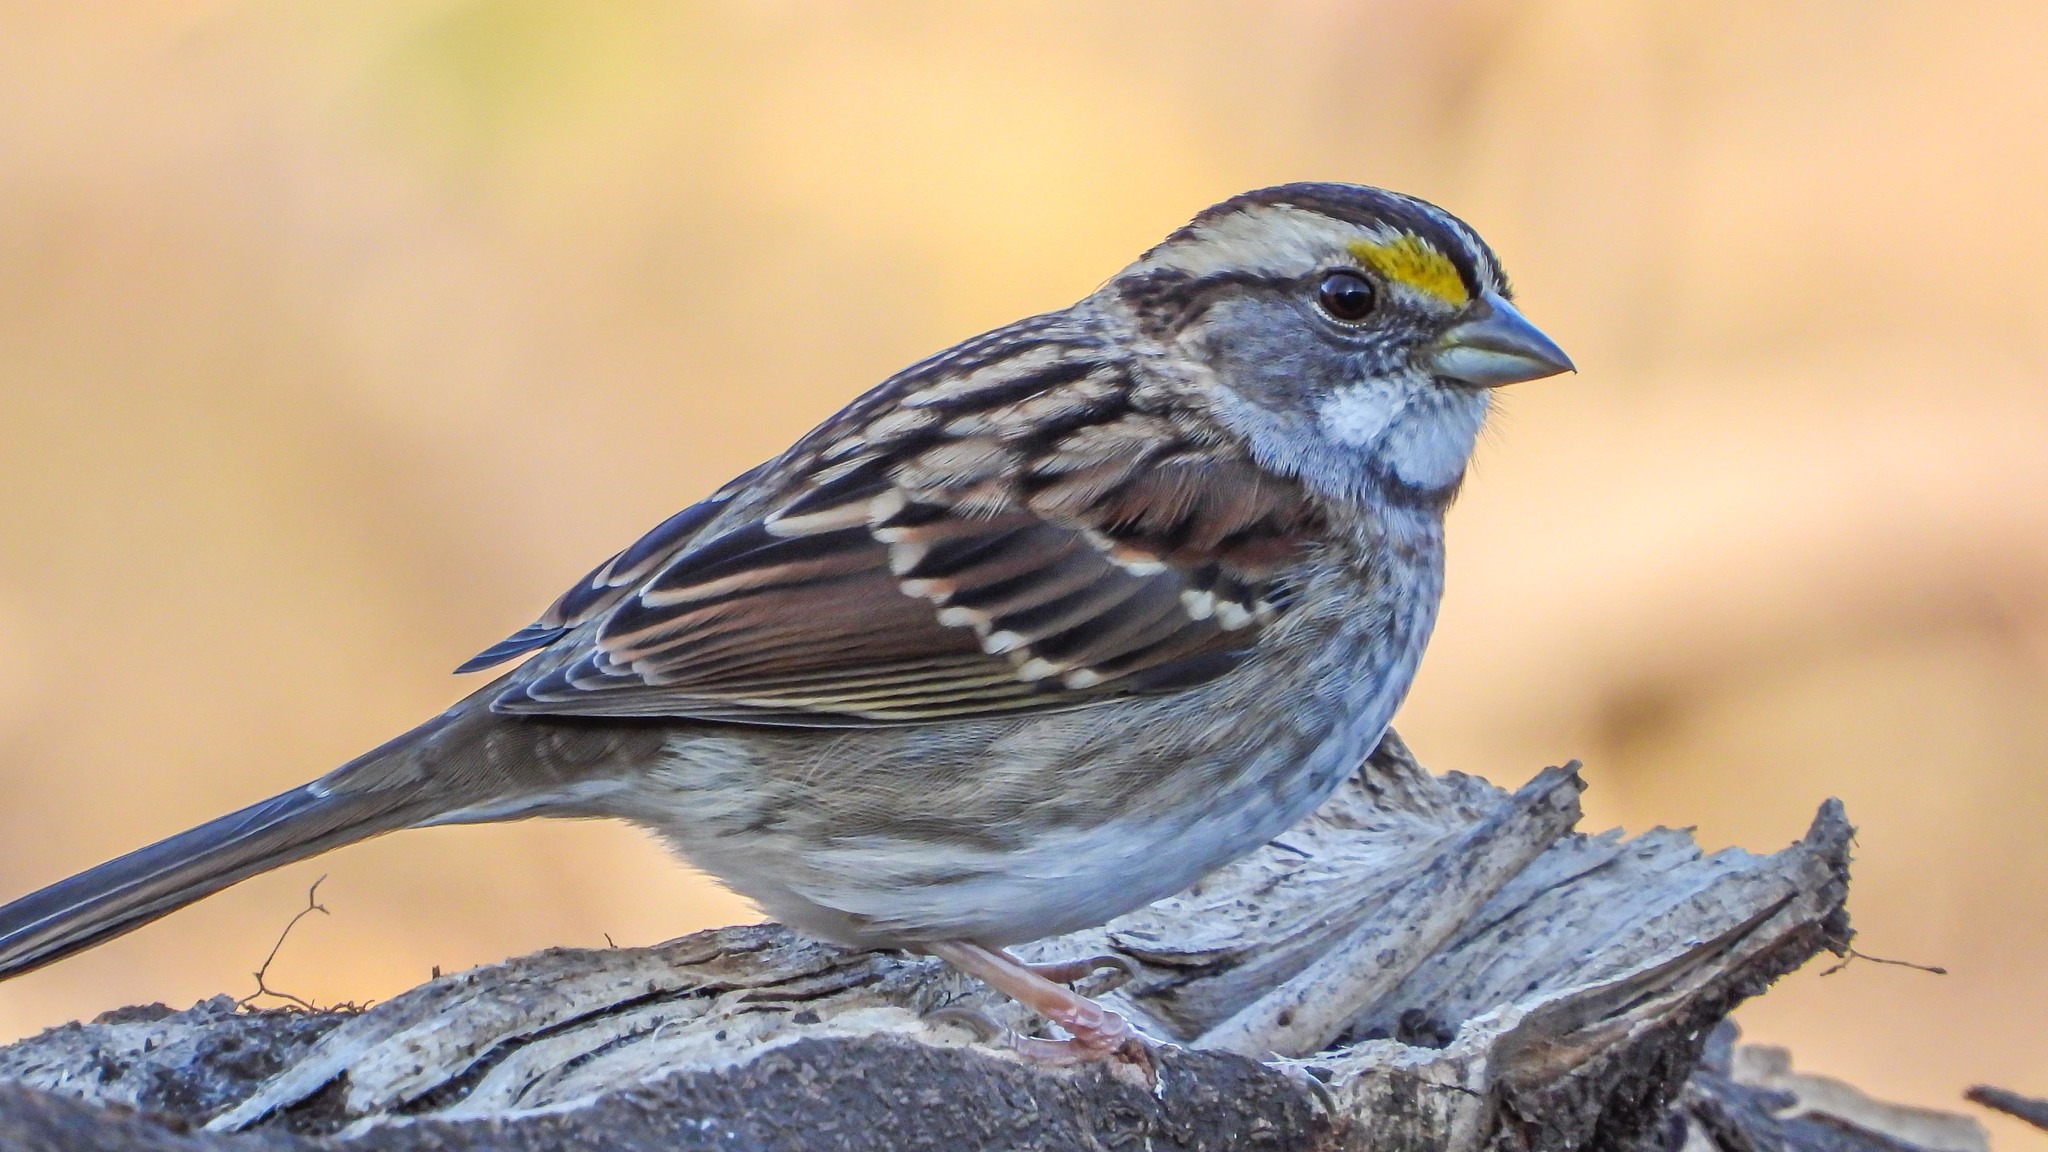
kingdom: Animalia
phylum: Chordata
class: Aves
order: Passeriformes
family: Passerellidae
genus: Zonotrichia
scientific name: Zonotrichia albicollis
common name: White-throated sparrow
